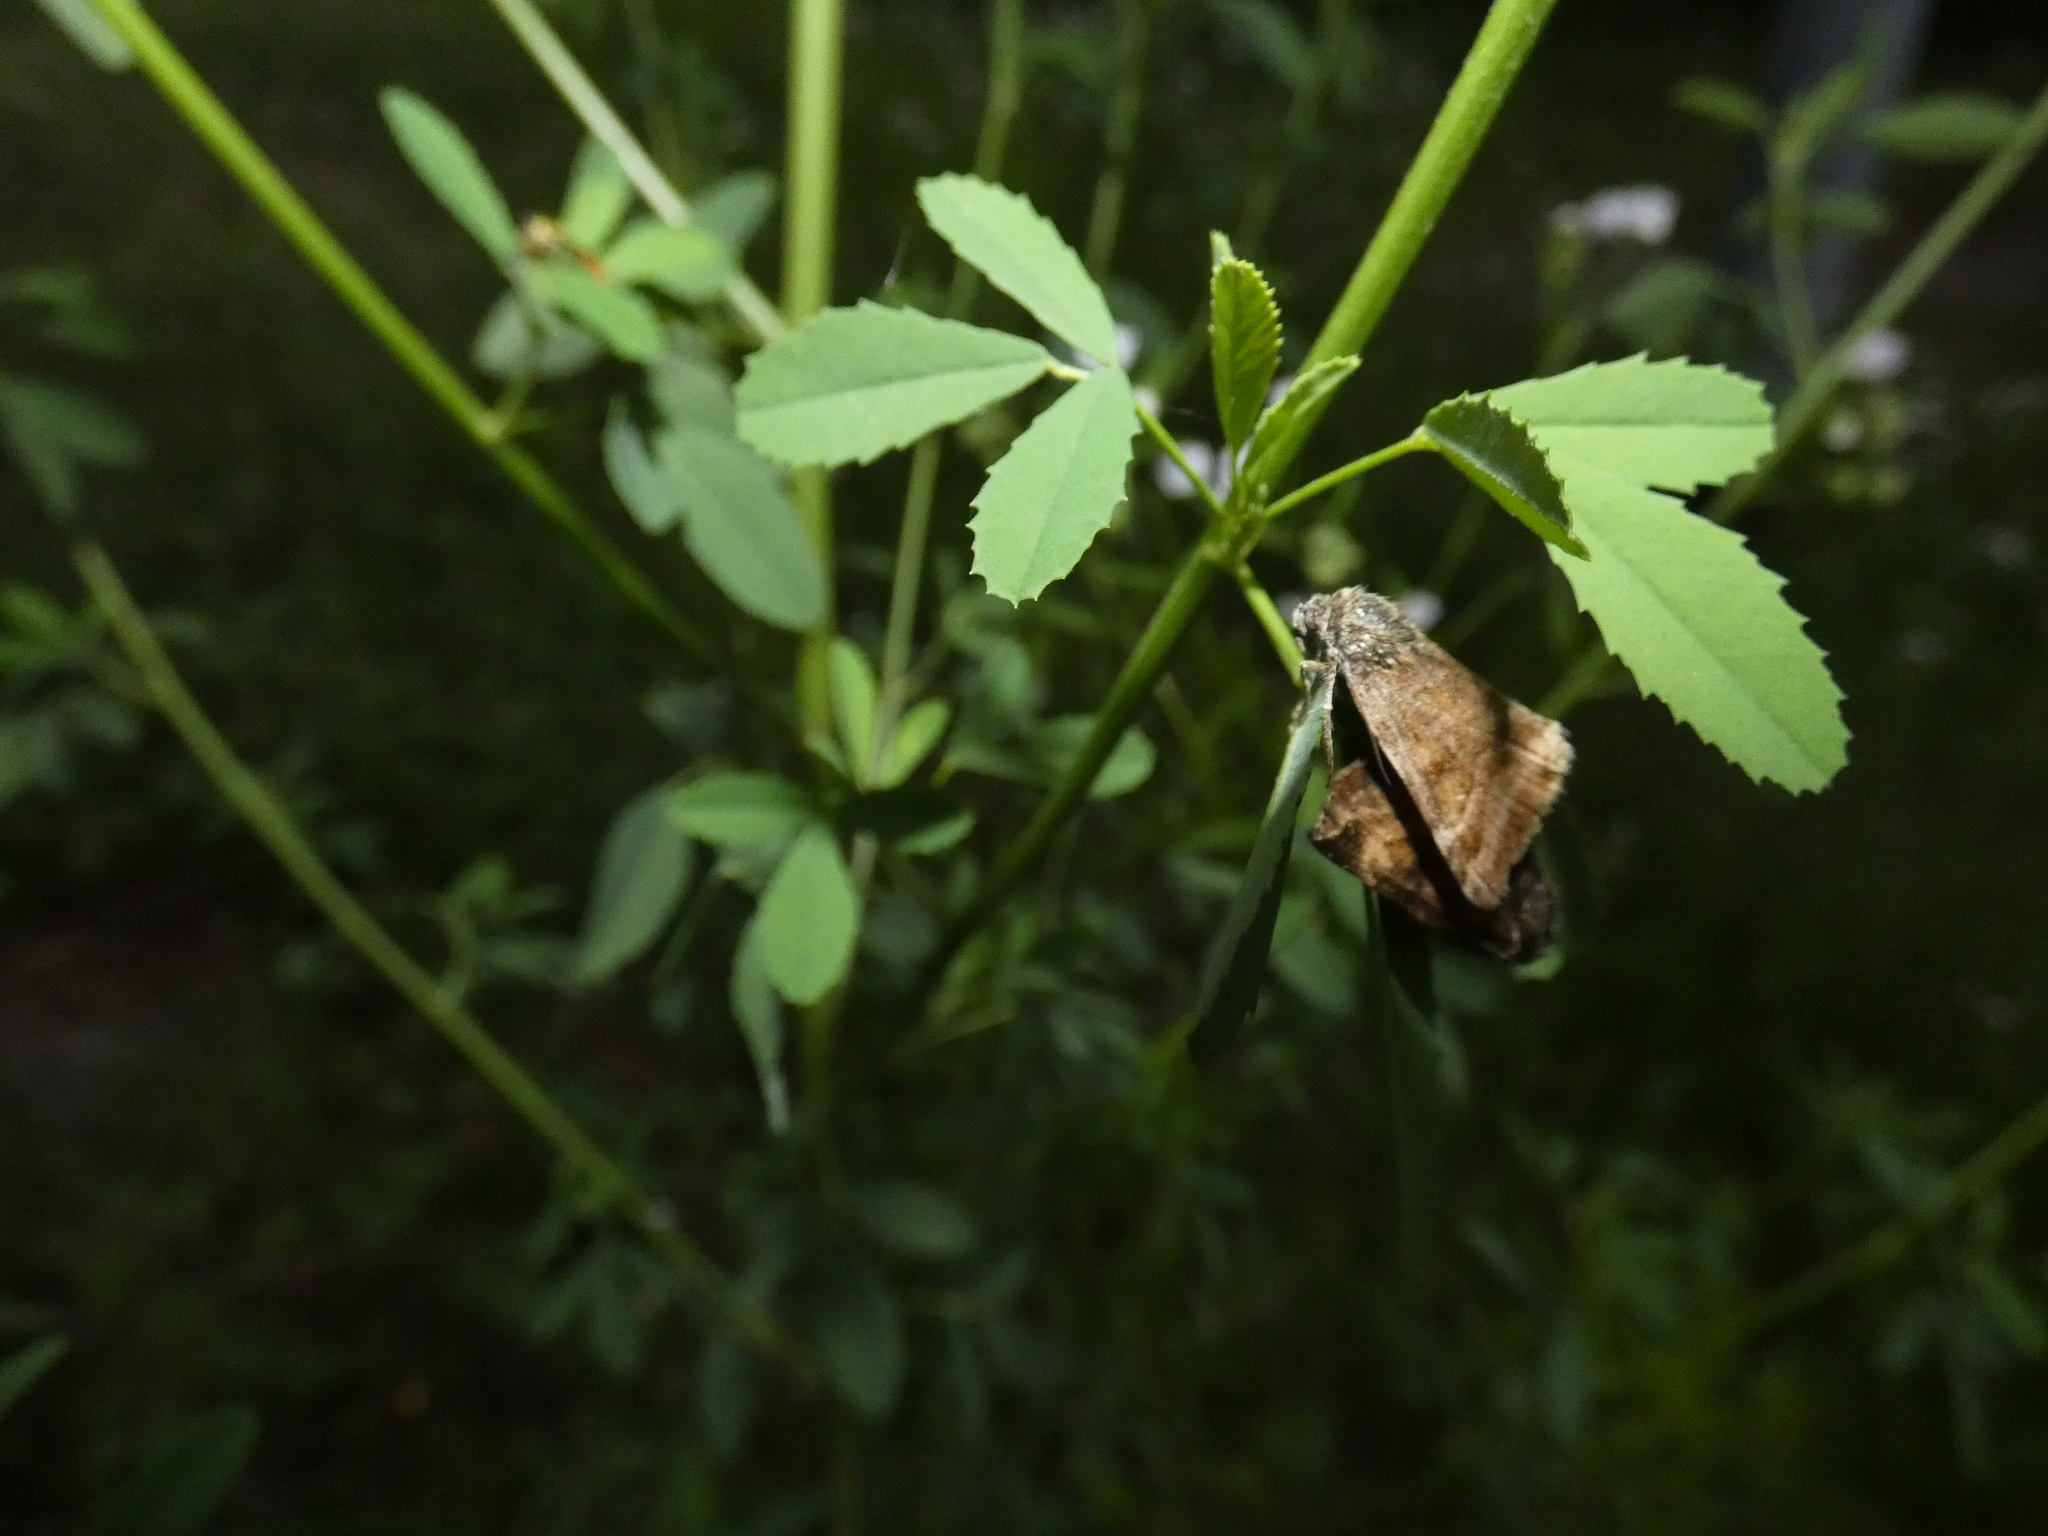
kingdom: Animalia
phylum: Arthropoda
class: Insecta
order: Lepidoptera
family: Erebidae
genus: Euclidia
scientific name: Euclidia glyphica
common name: Burnet companion
